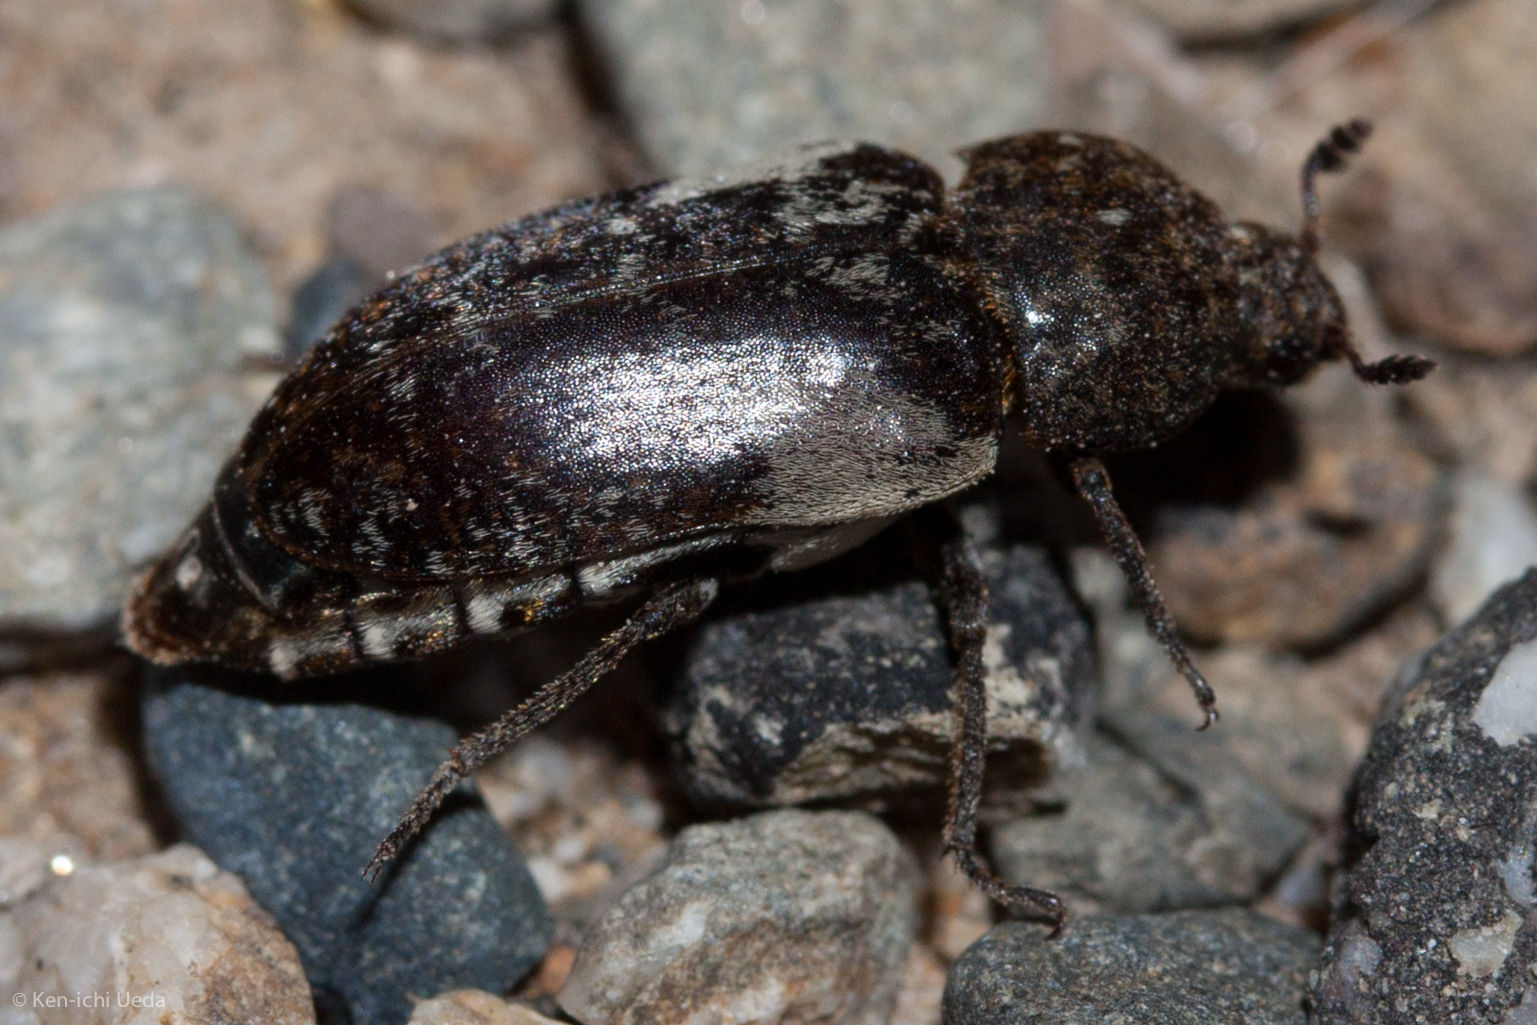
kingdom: Animalia
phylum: Arthropoda
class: Insecta
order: Coleoptera
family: Dermestidae
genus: Dermestes
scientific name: Dermestes marmoratus
